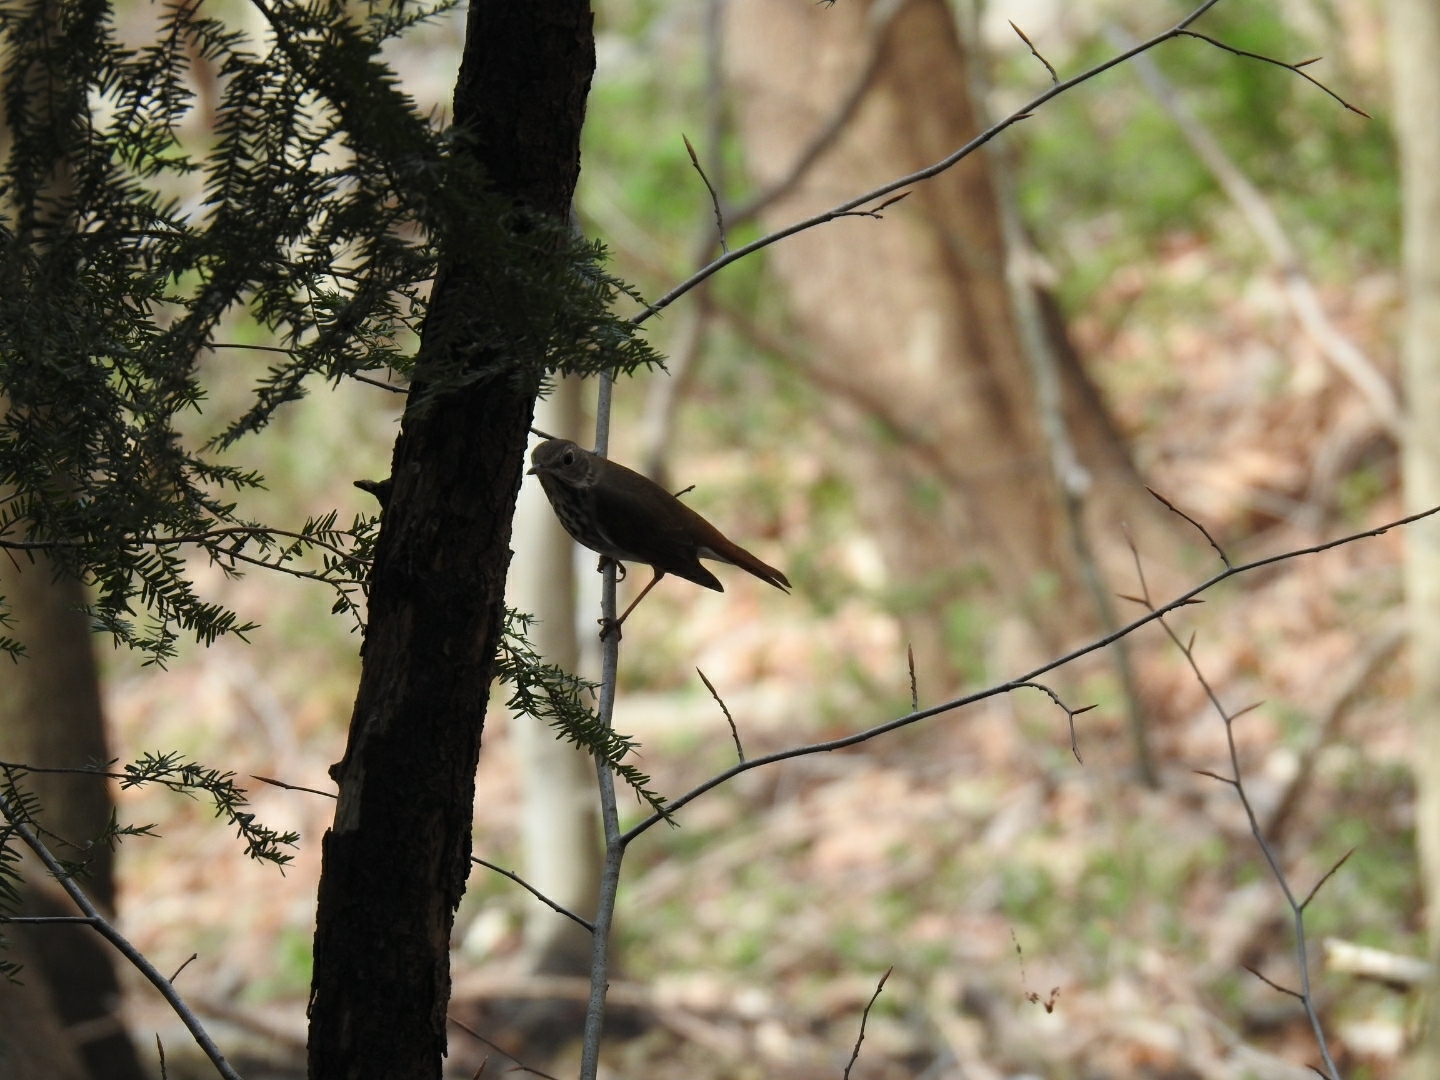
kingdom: Animalia
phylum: Chordata
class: Aves
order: Passeriformes
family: Turdidae
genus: Catharus
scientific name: Catharus guttatus
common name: Hermit thrush
